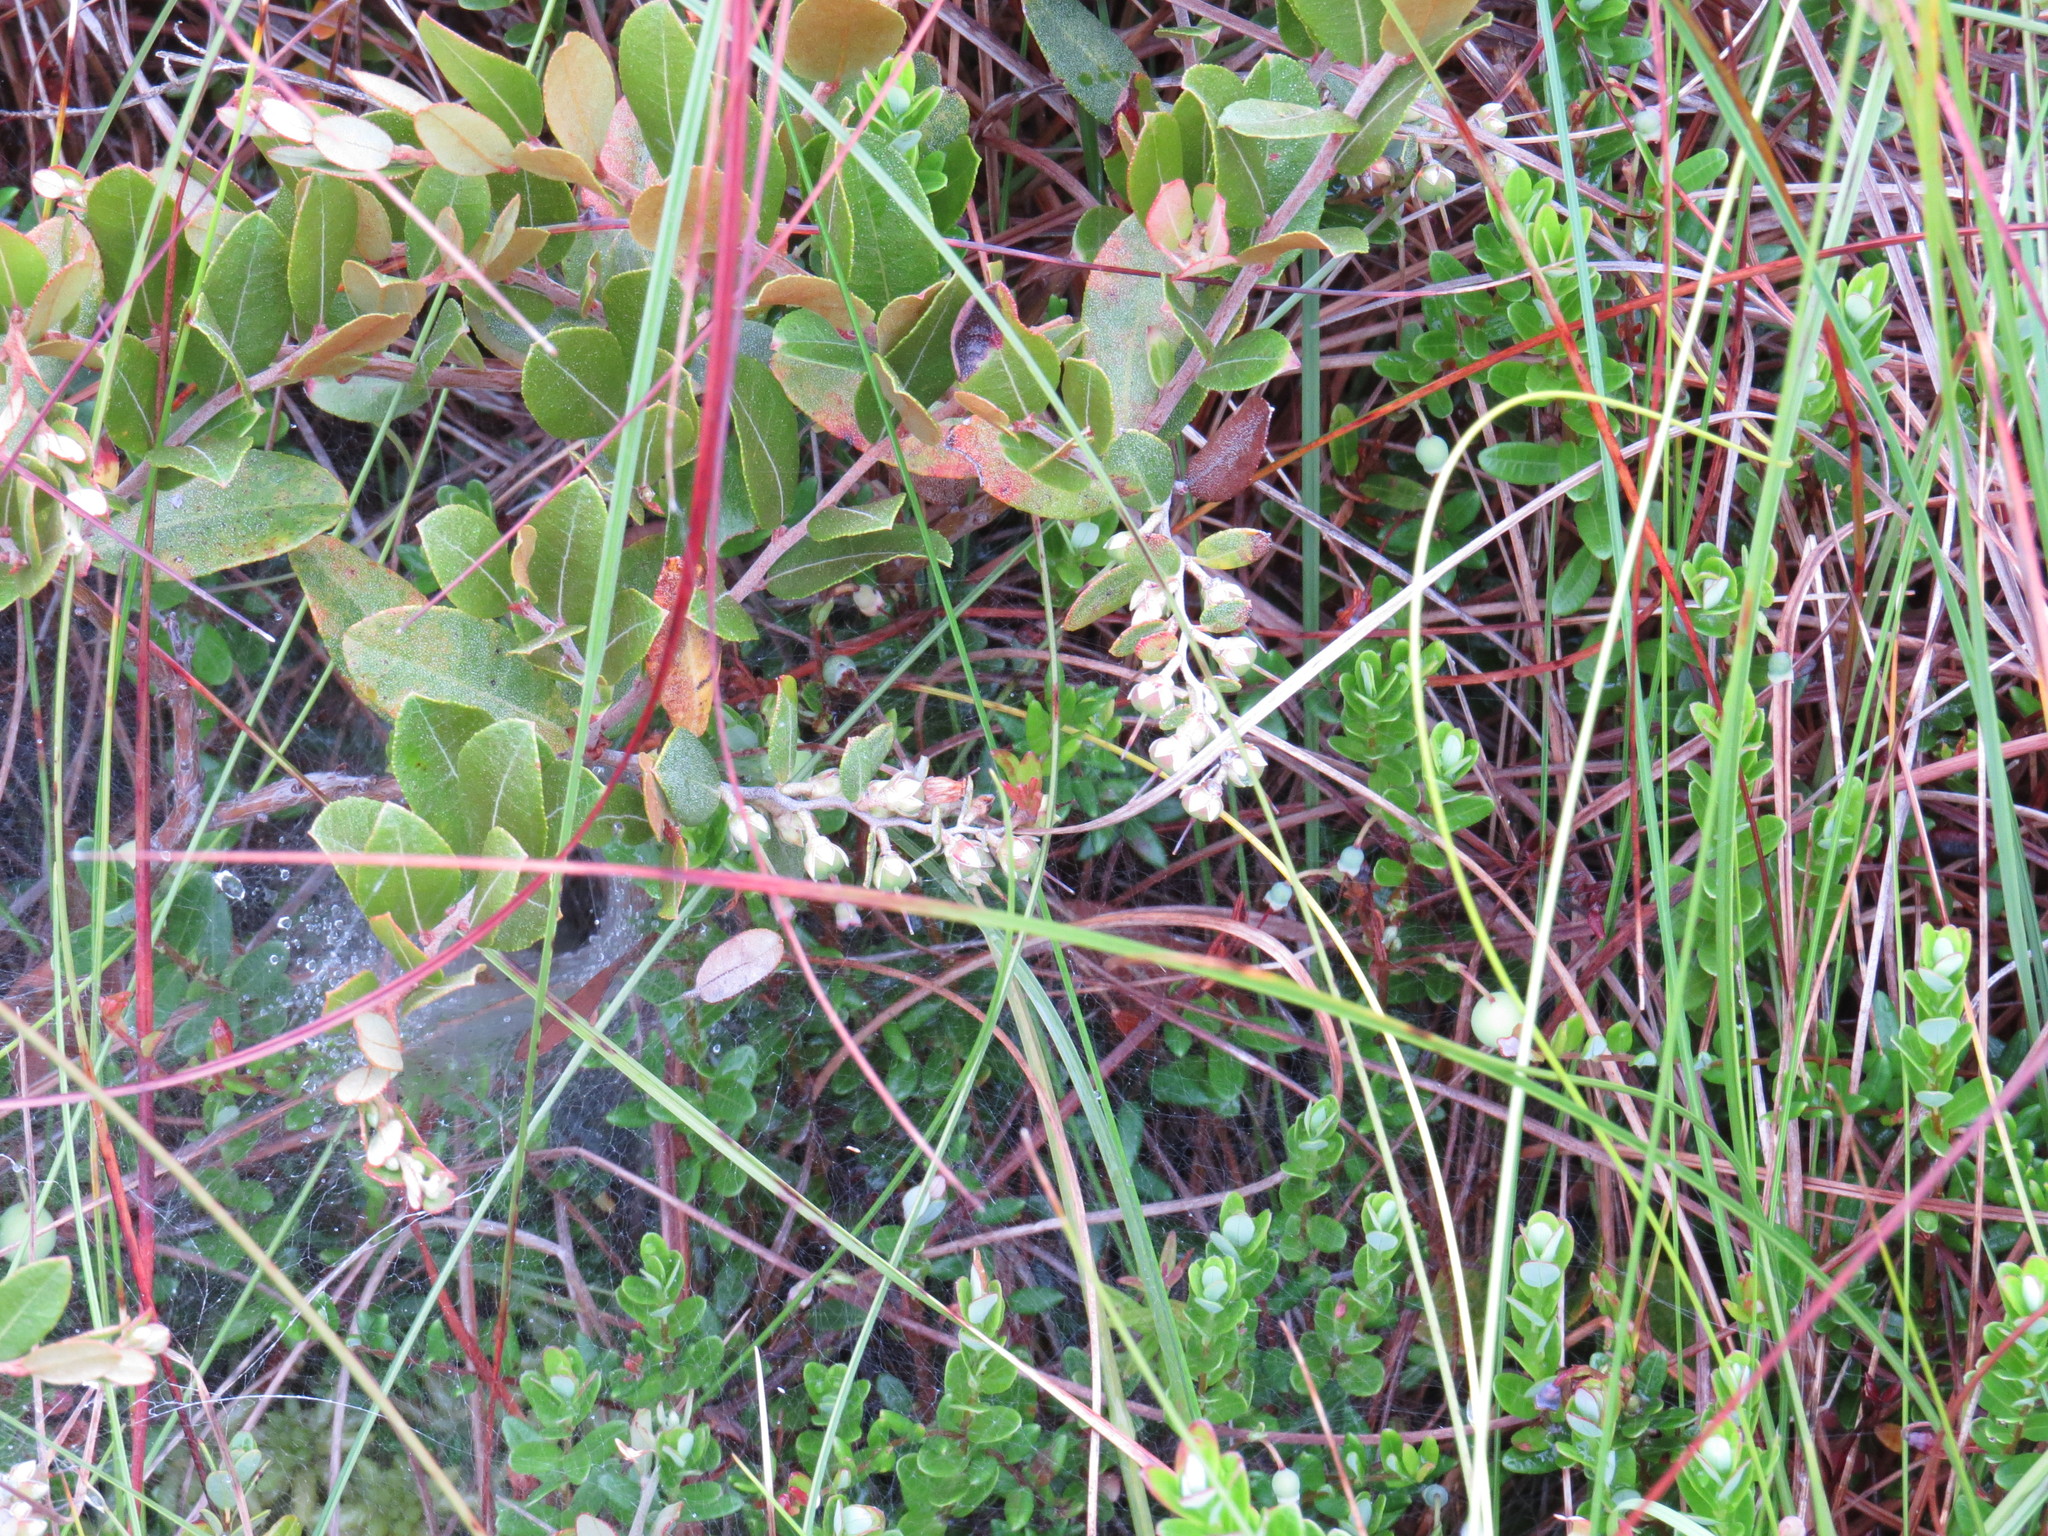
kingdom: Plantae
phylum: Tracheophyta
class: Magnoliopsida
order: Ericales
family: Ericaceae
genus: Chamaedaphne
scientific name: Chamaedaphne calyculata
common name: Leatherleaf
